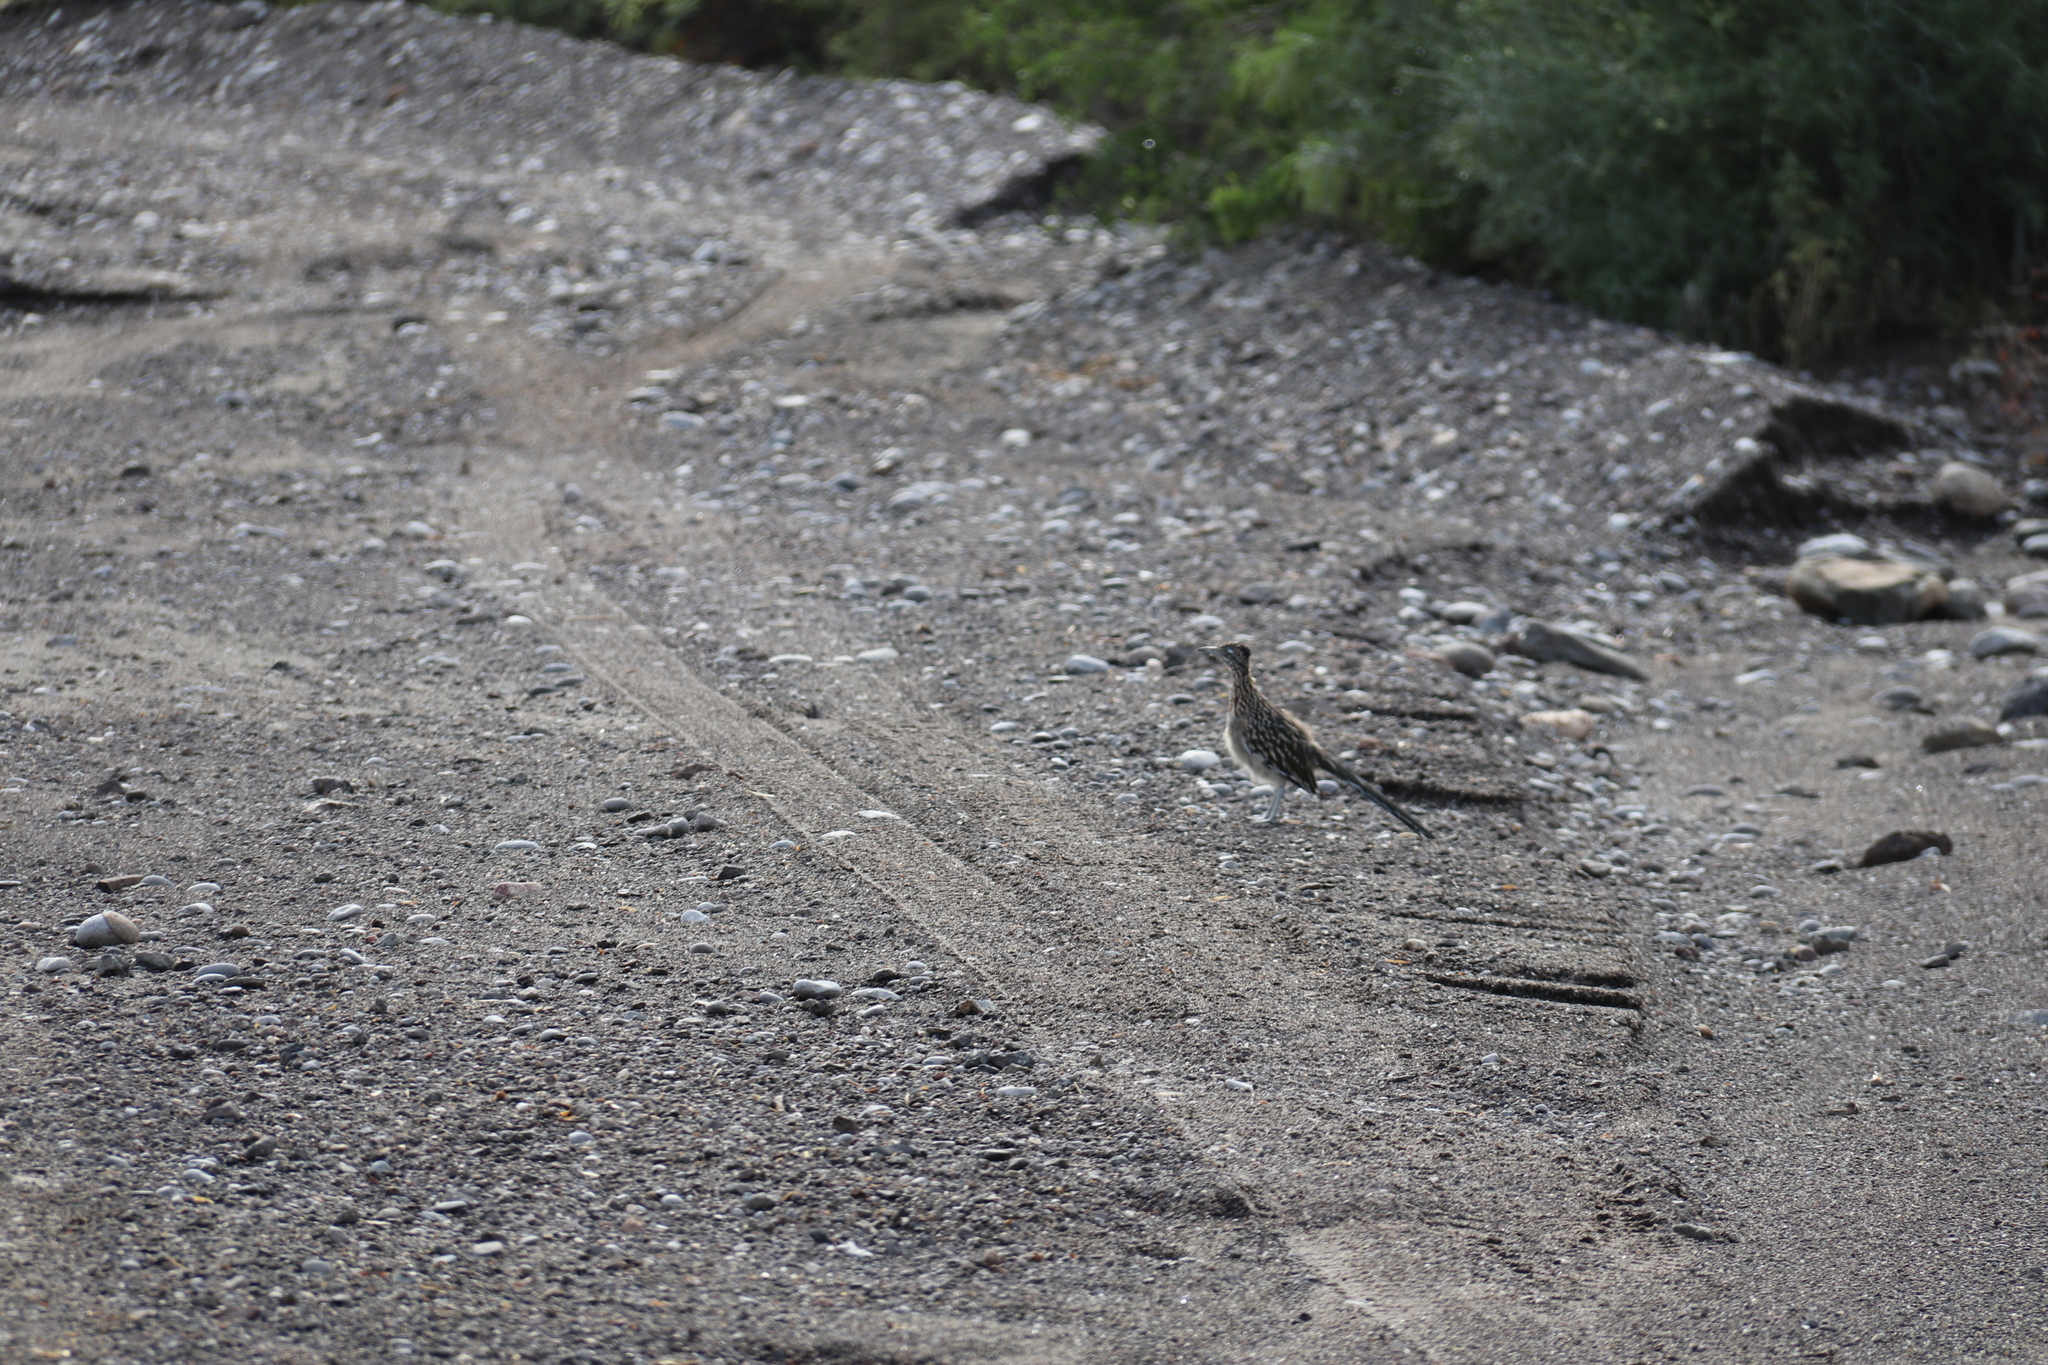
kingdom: Animalia
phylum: Chordata
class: Aves
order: Cuculiformes
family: Cuculidae
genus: Geococcyx
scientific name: Geococcyx californianus
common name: Greater roadrunner
